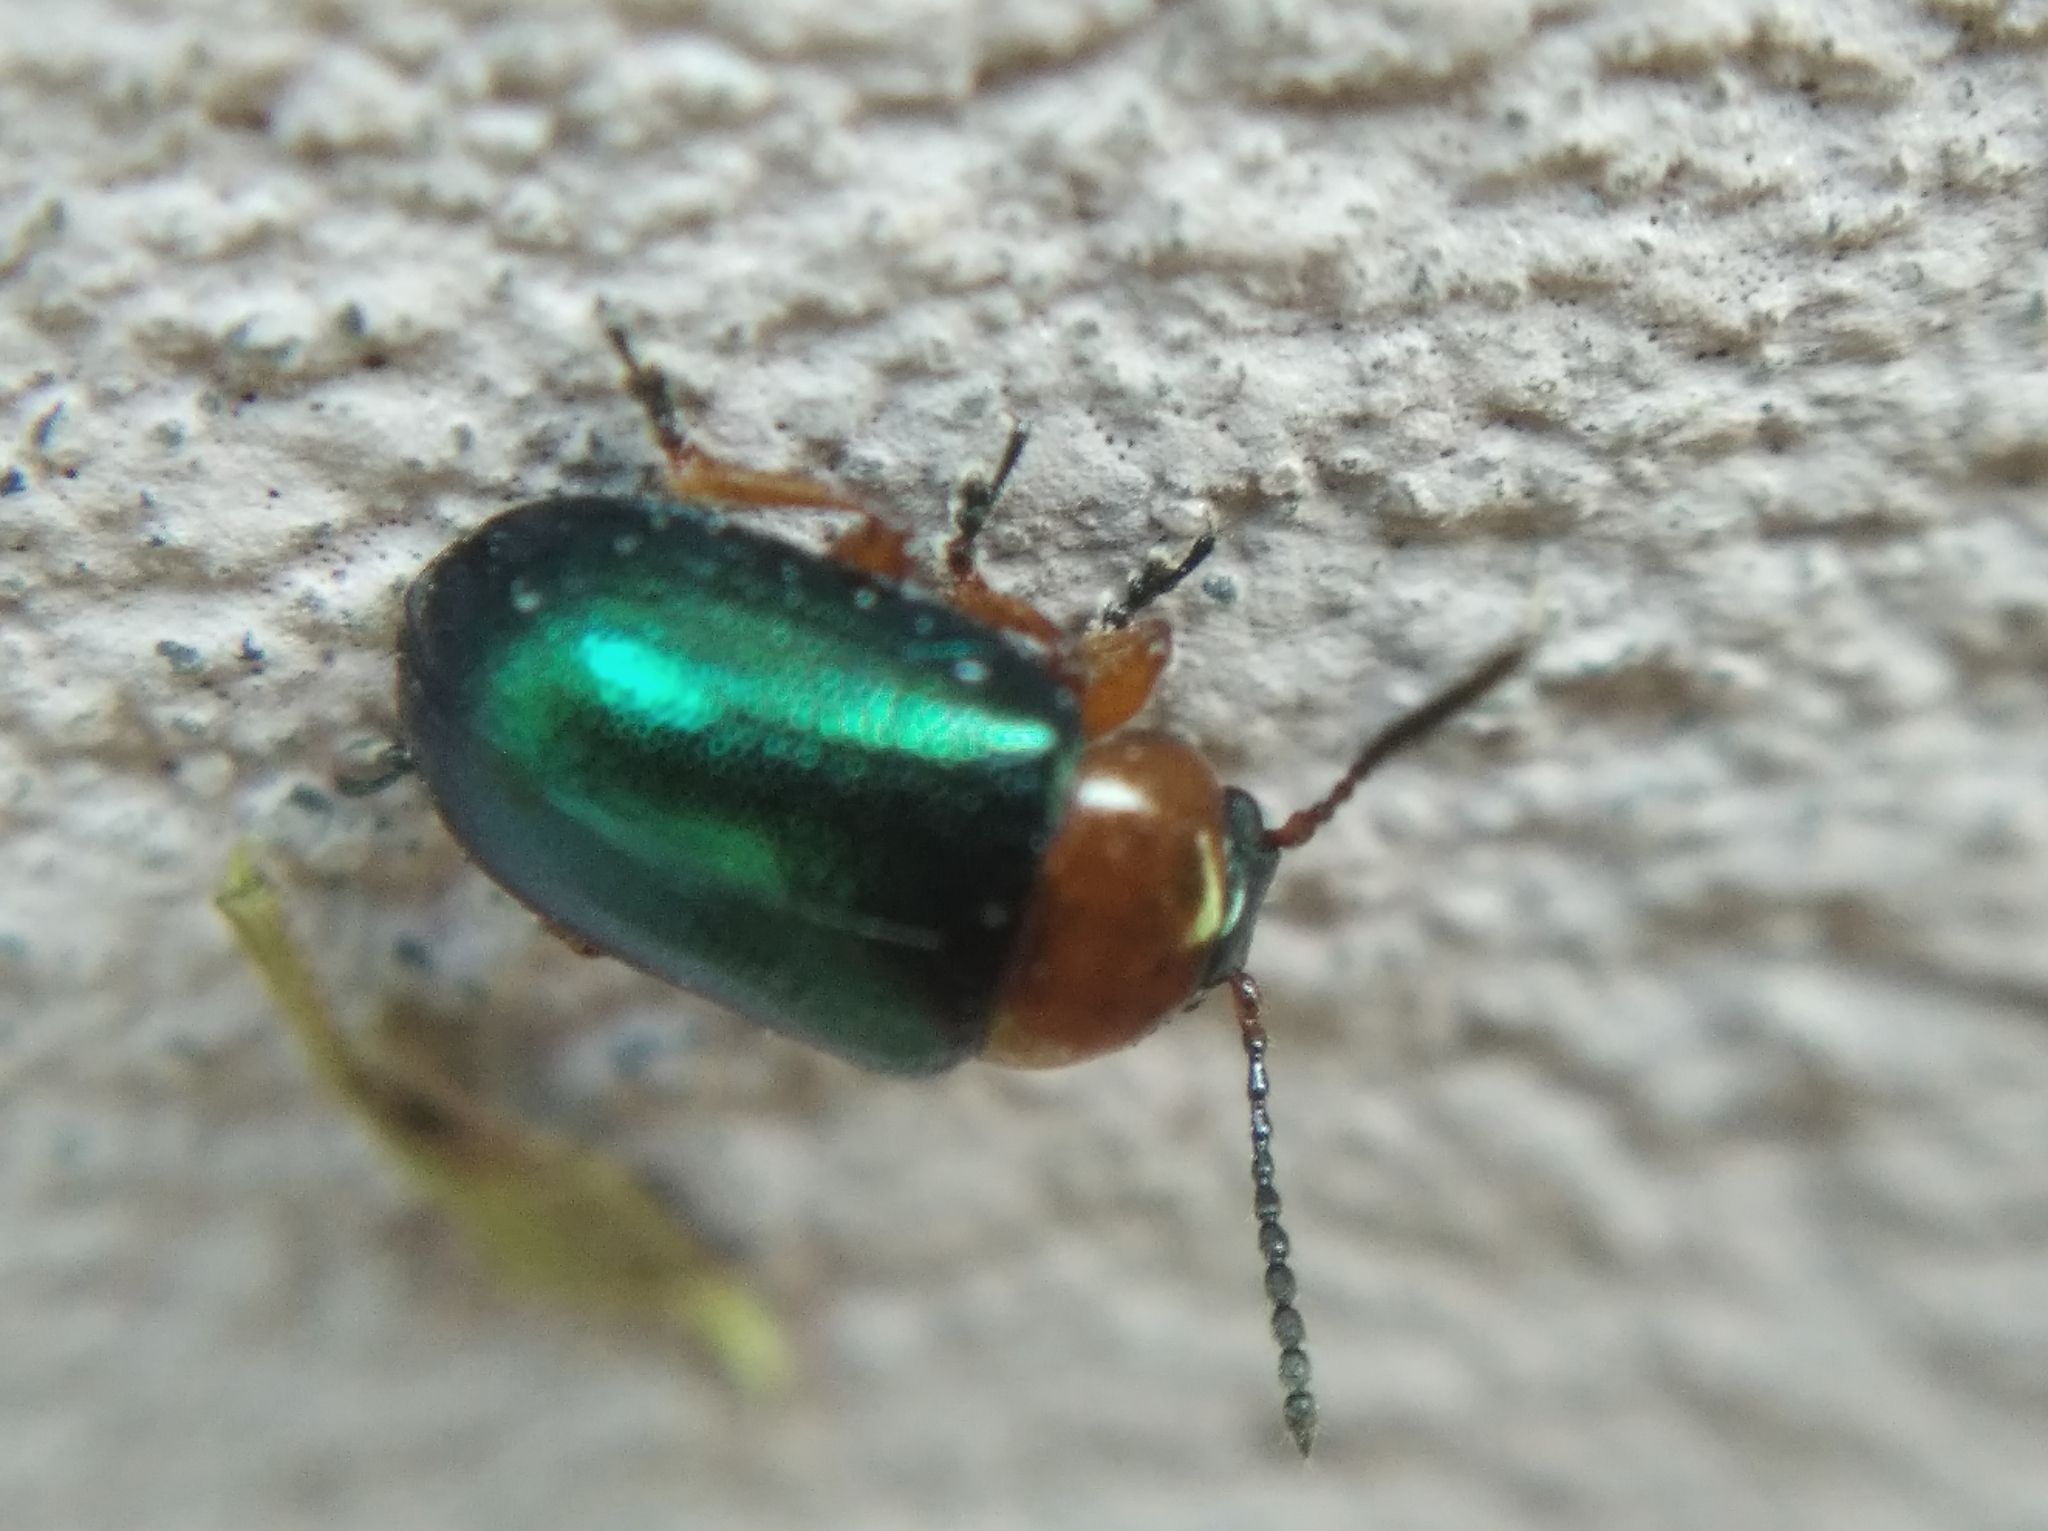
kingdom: Animalia
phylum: Arthropoda
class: Insecta
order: Coleoptera
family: Chrysomelidae
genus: Gastrophysa
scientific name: Gastrophysa polygoni
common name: Knotweed leaf beetle
